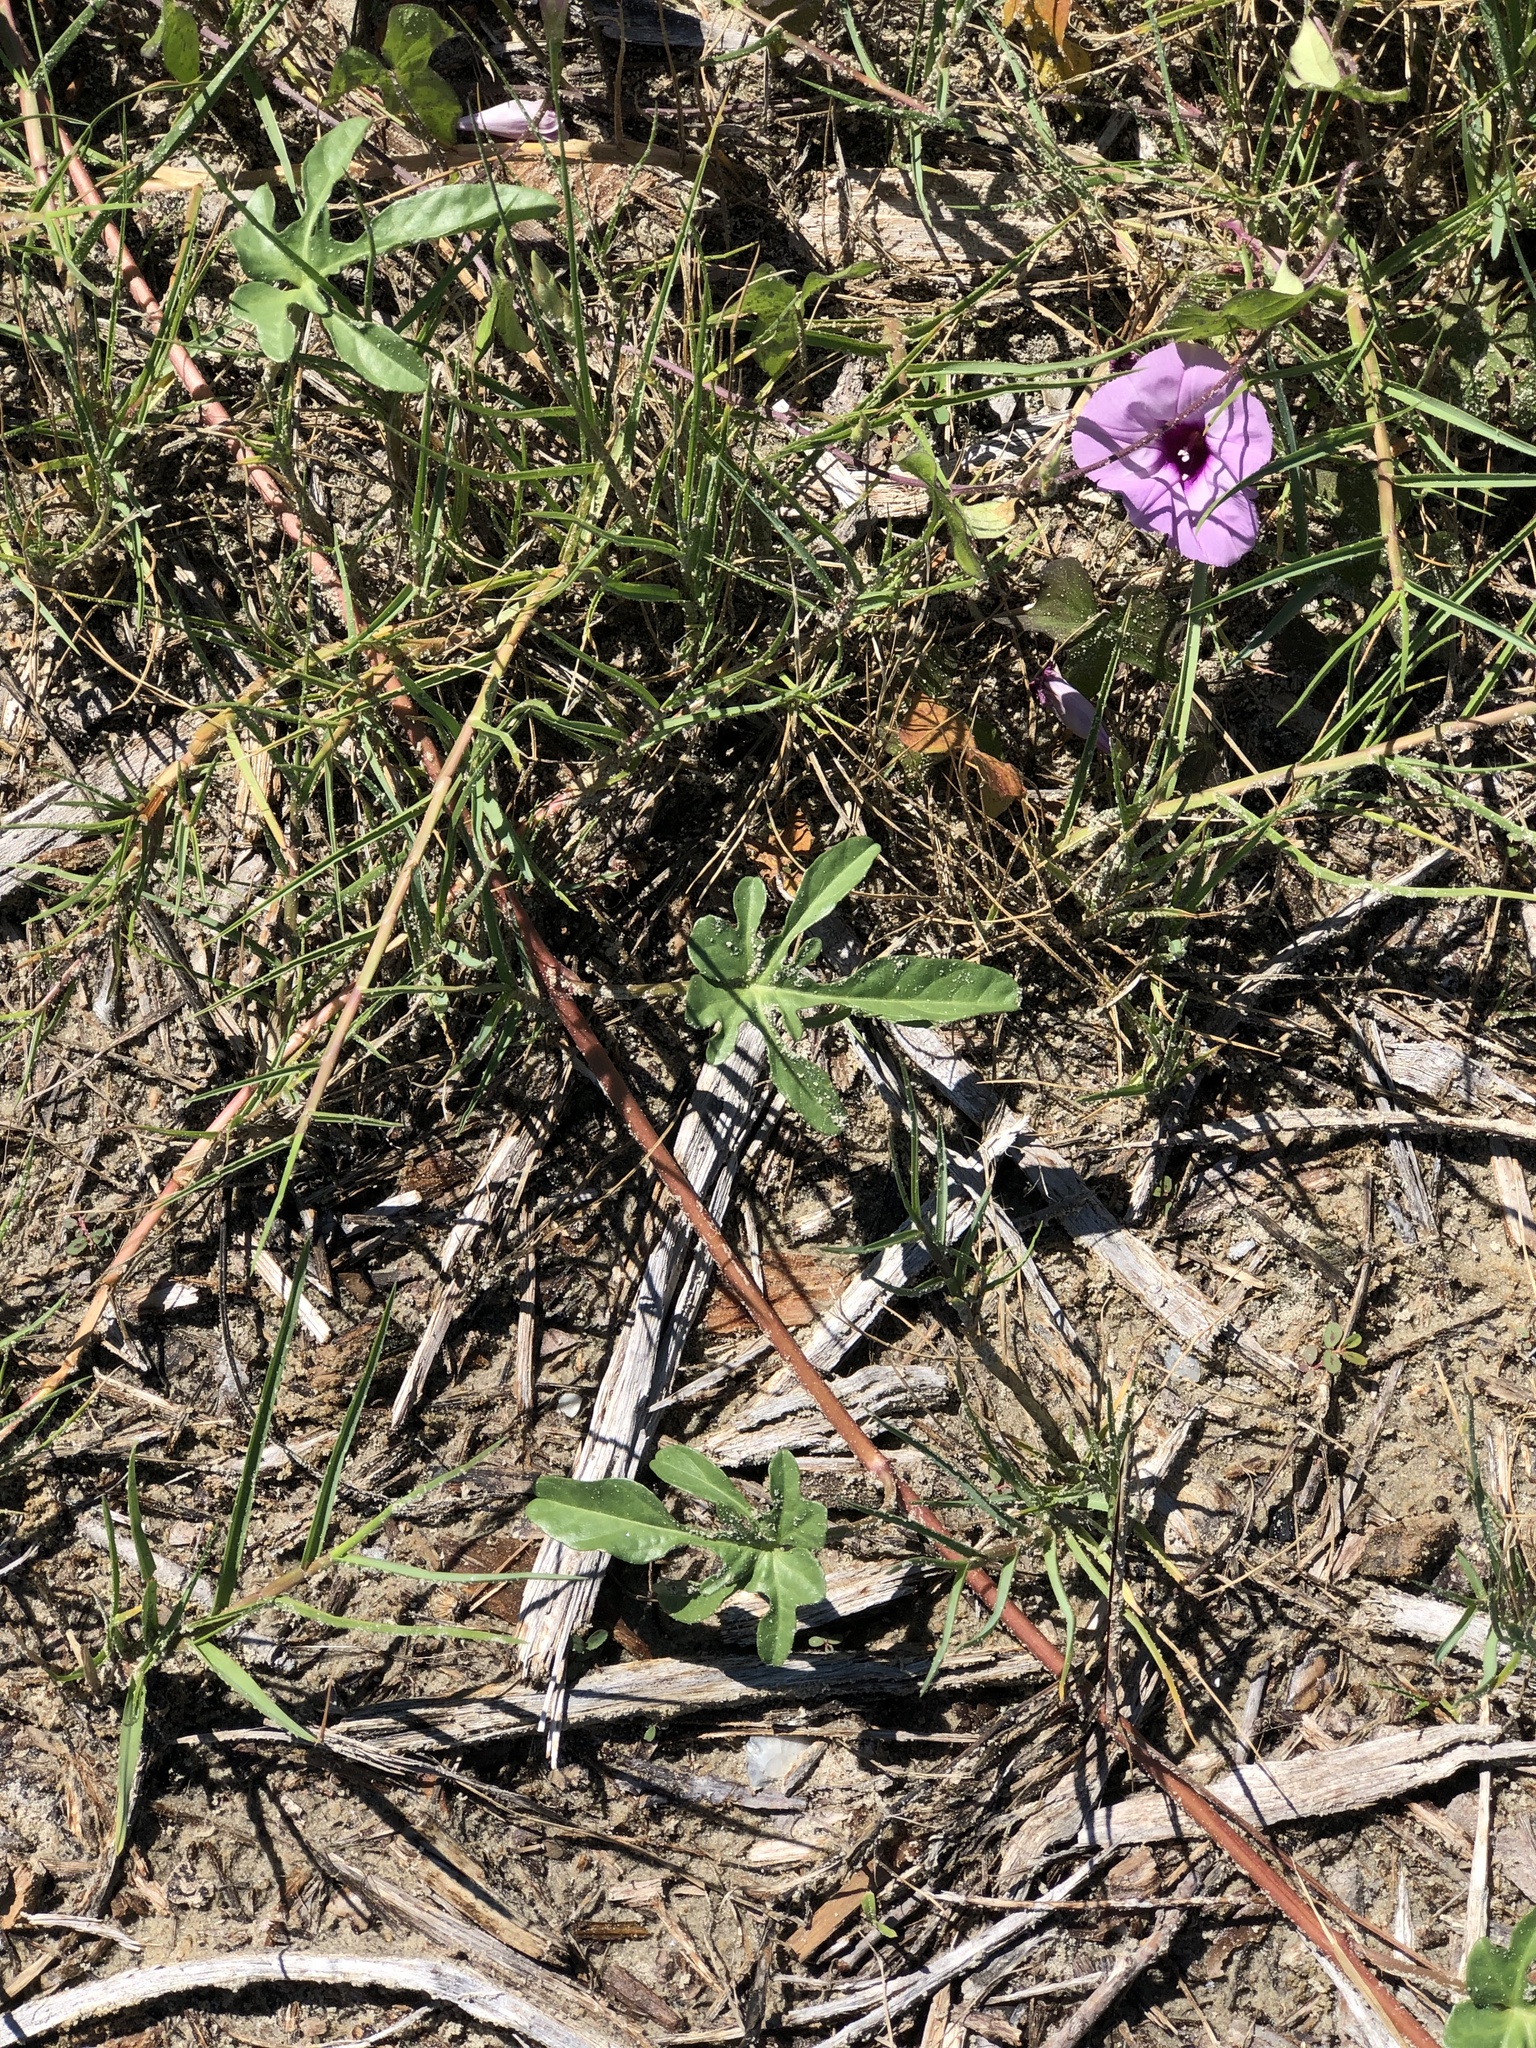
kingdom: Plantae
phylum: Tracheophyta
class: Magnoliopsida
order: Solanales
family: Convolvulaceae
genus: Ipomoea
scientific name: Ipomoea cordatotriloba
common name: Cotton morning glory
